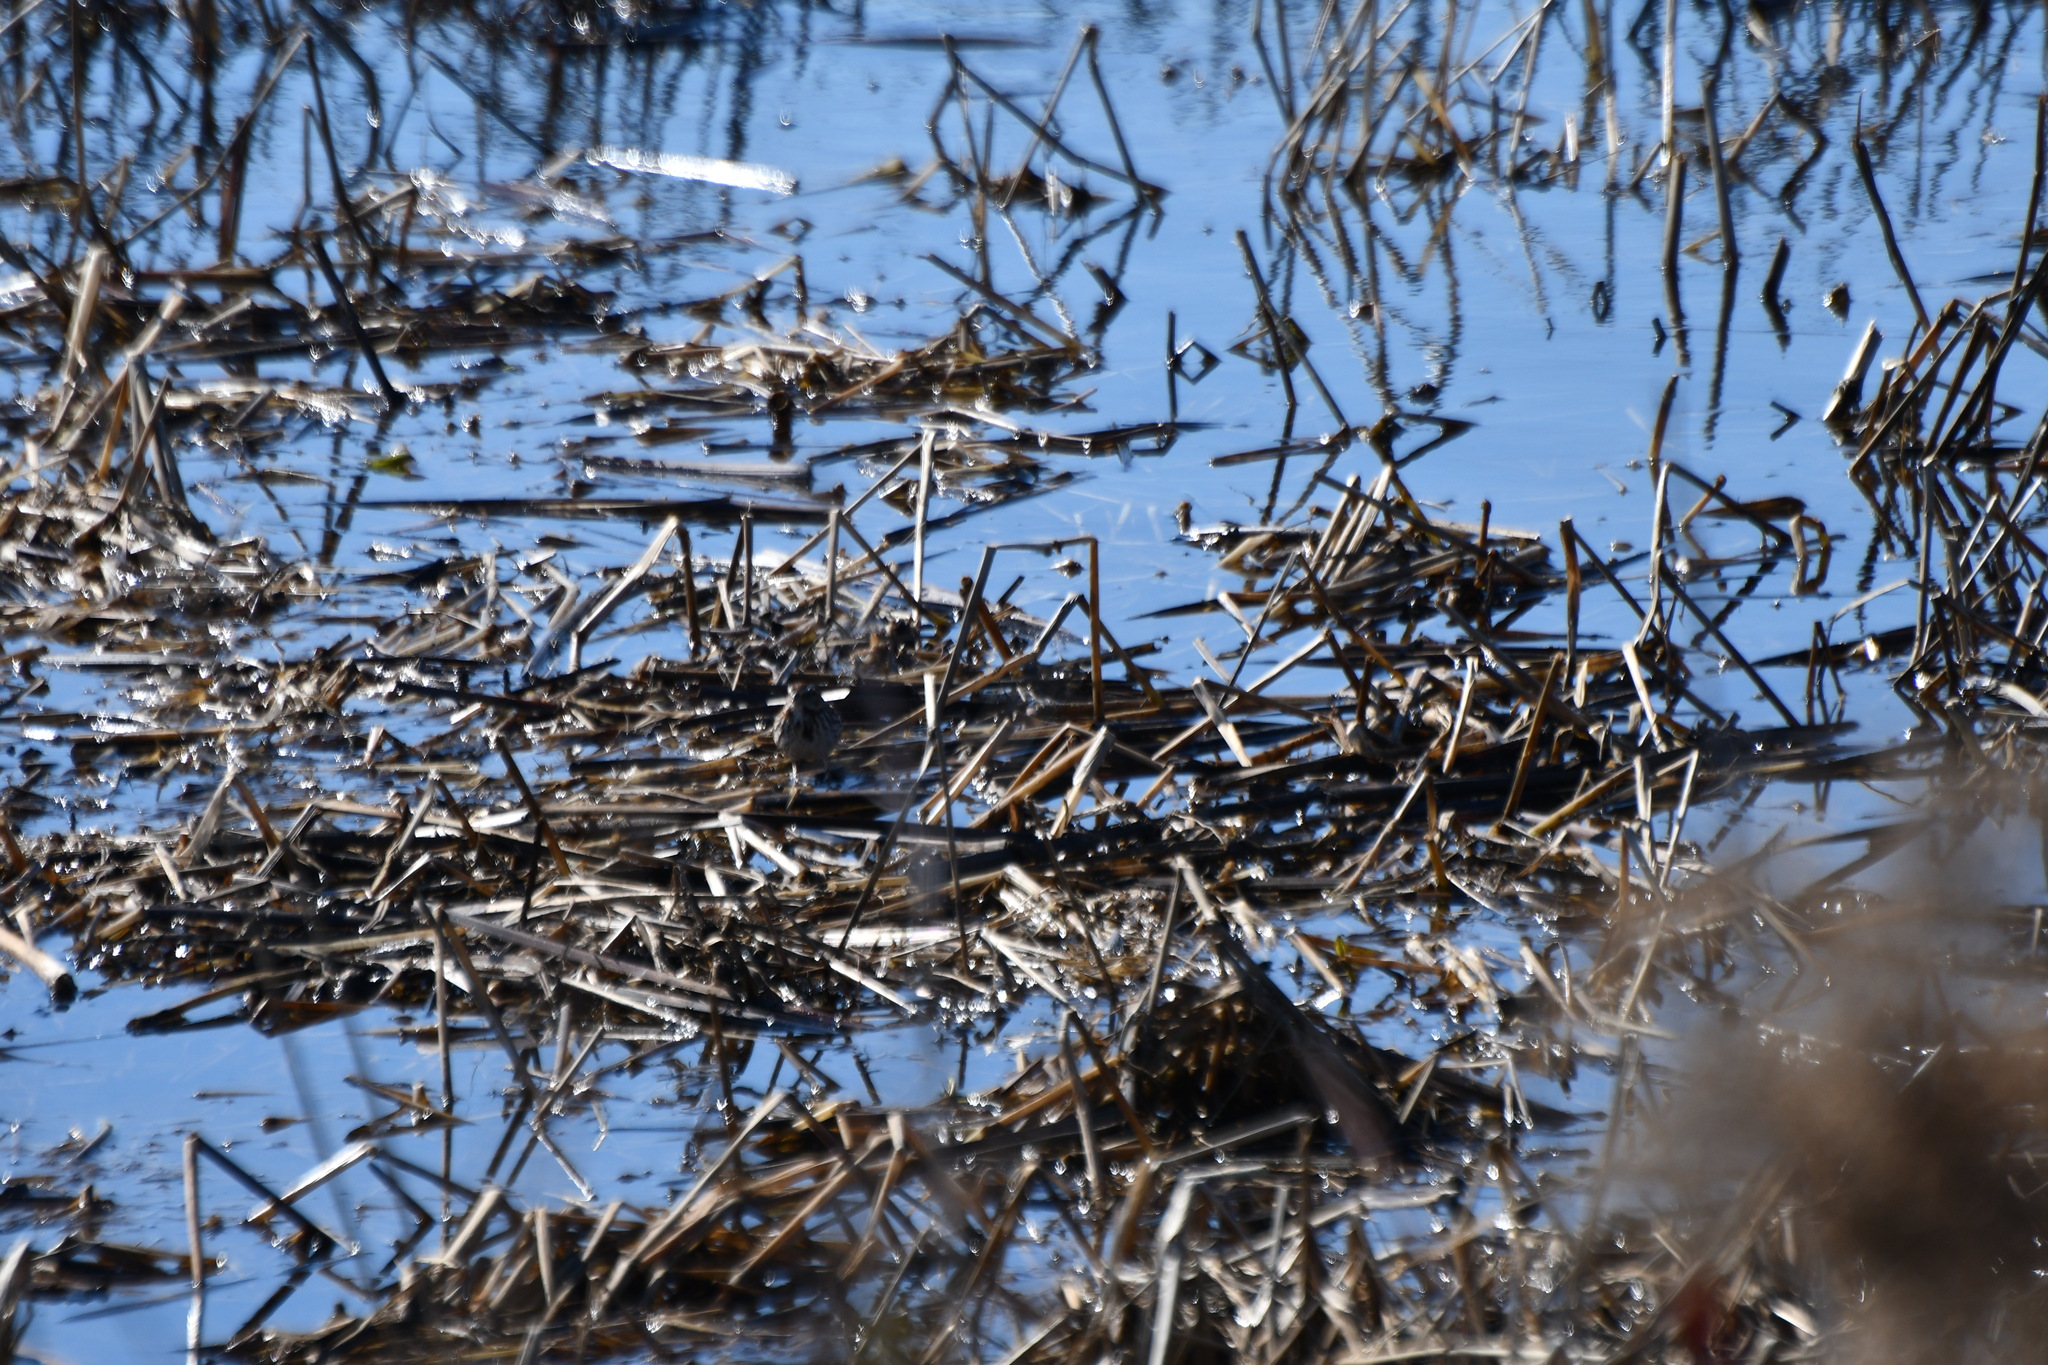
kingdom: Animalia
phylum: Chordata
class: Aves
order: Passeriformes
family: Passerellidae
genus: Melospiza
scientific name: Melospiza melodia
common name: Song sparrow
